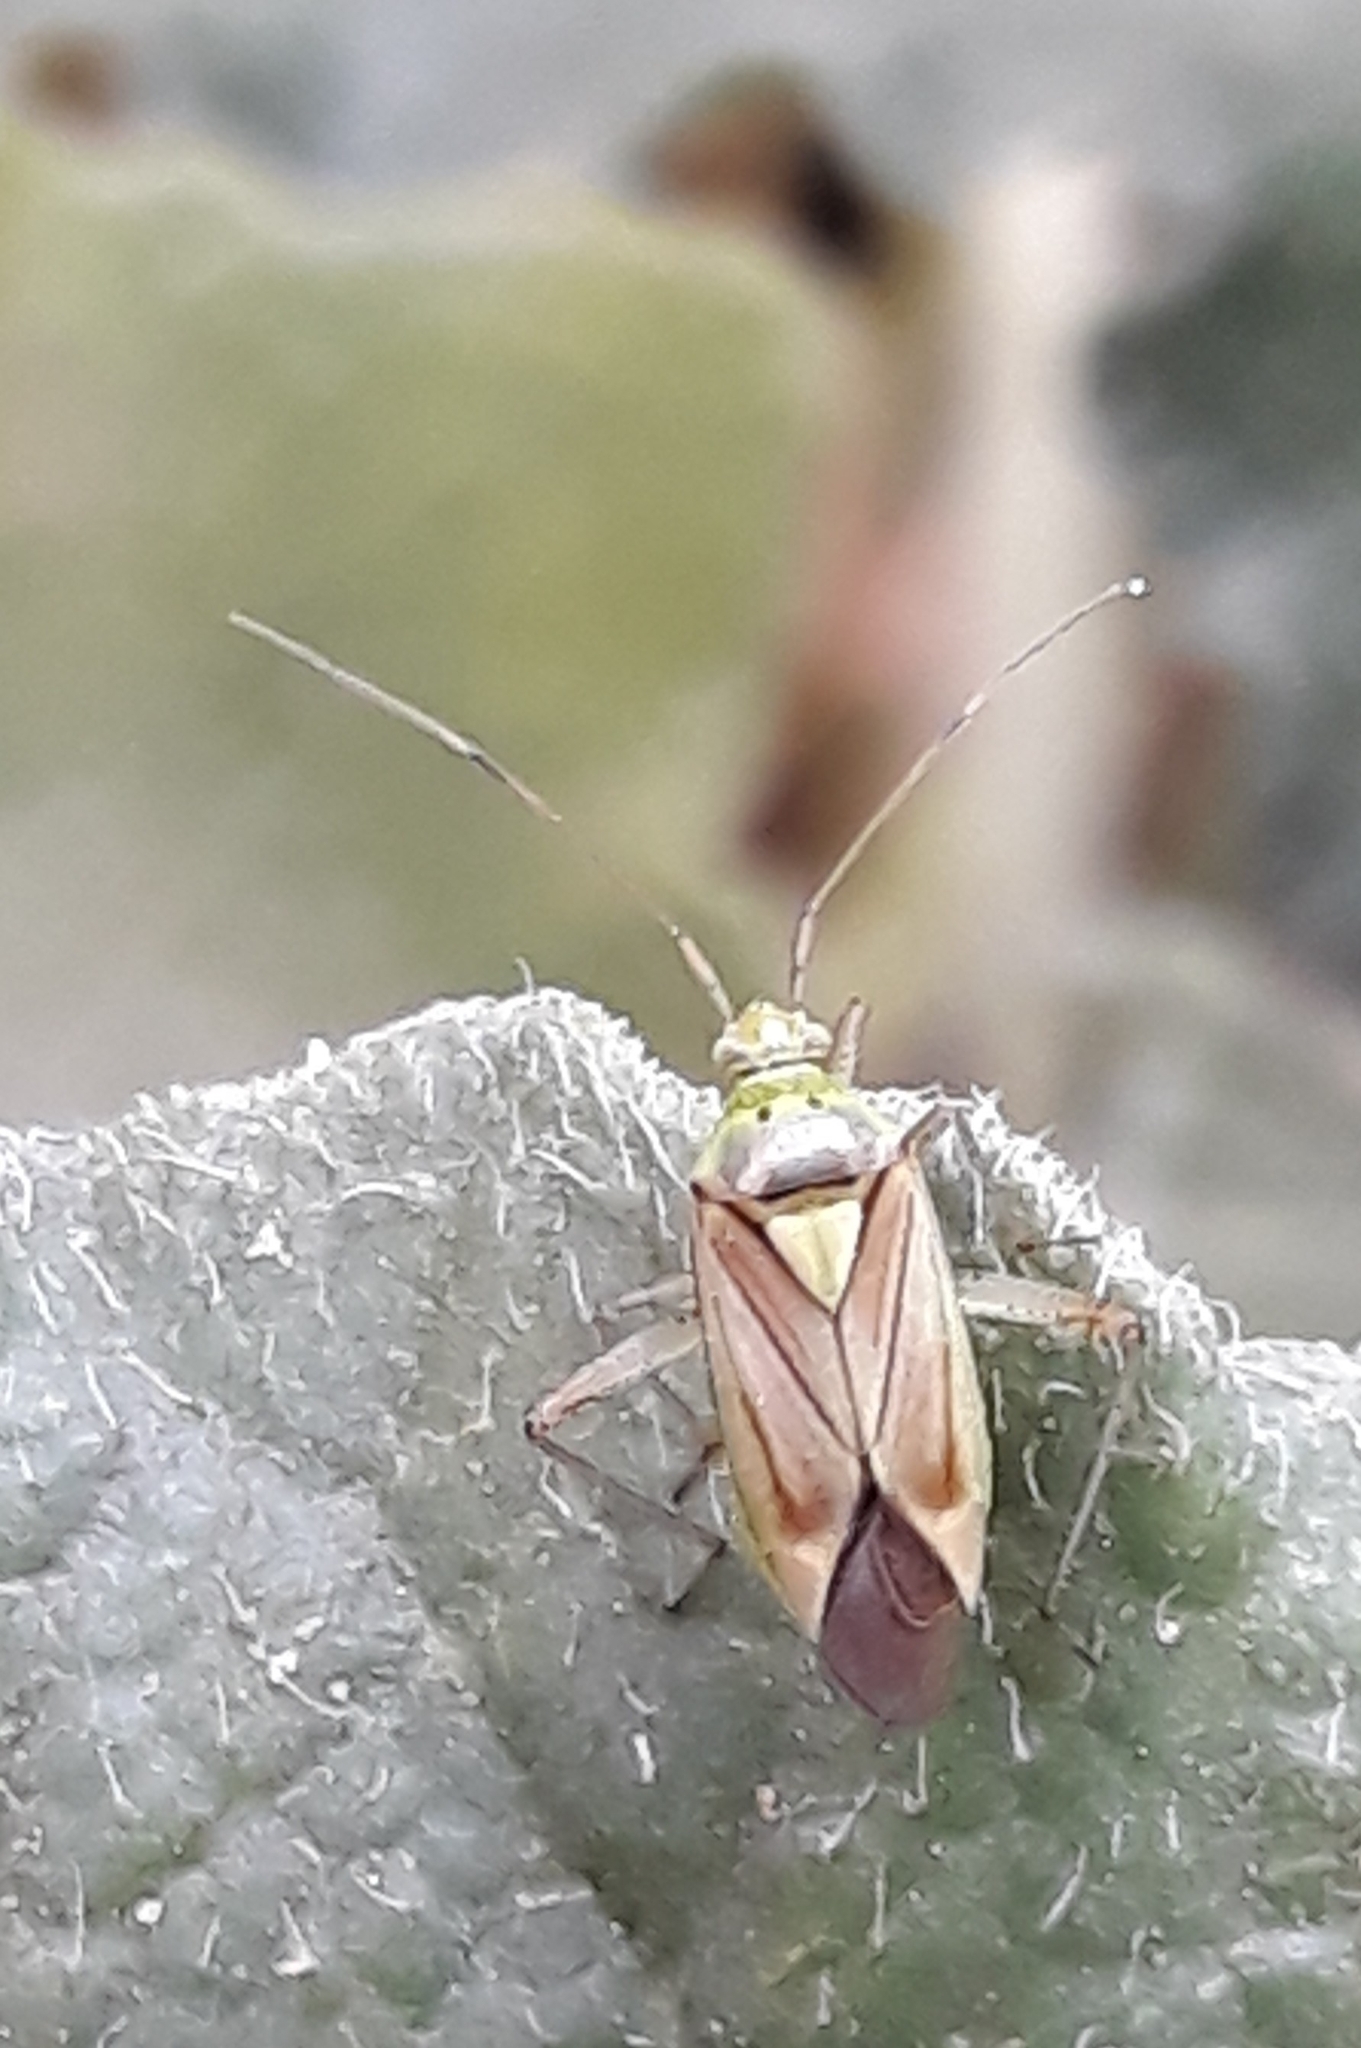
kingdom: Animalia
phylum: Arthropoda
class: Insecta
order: Hemiptera
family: Miridae
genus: Closterotomus
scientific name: Closterotomus tunetanus
